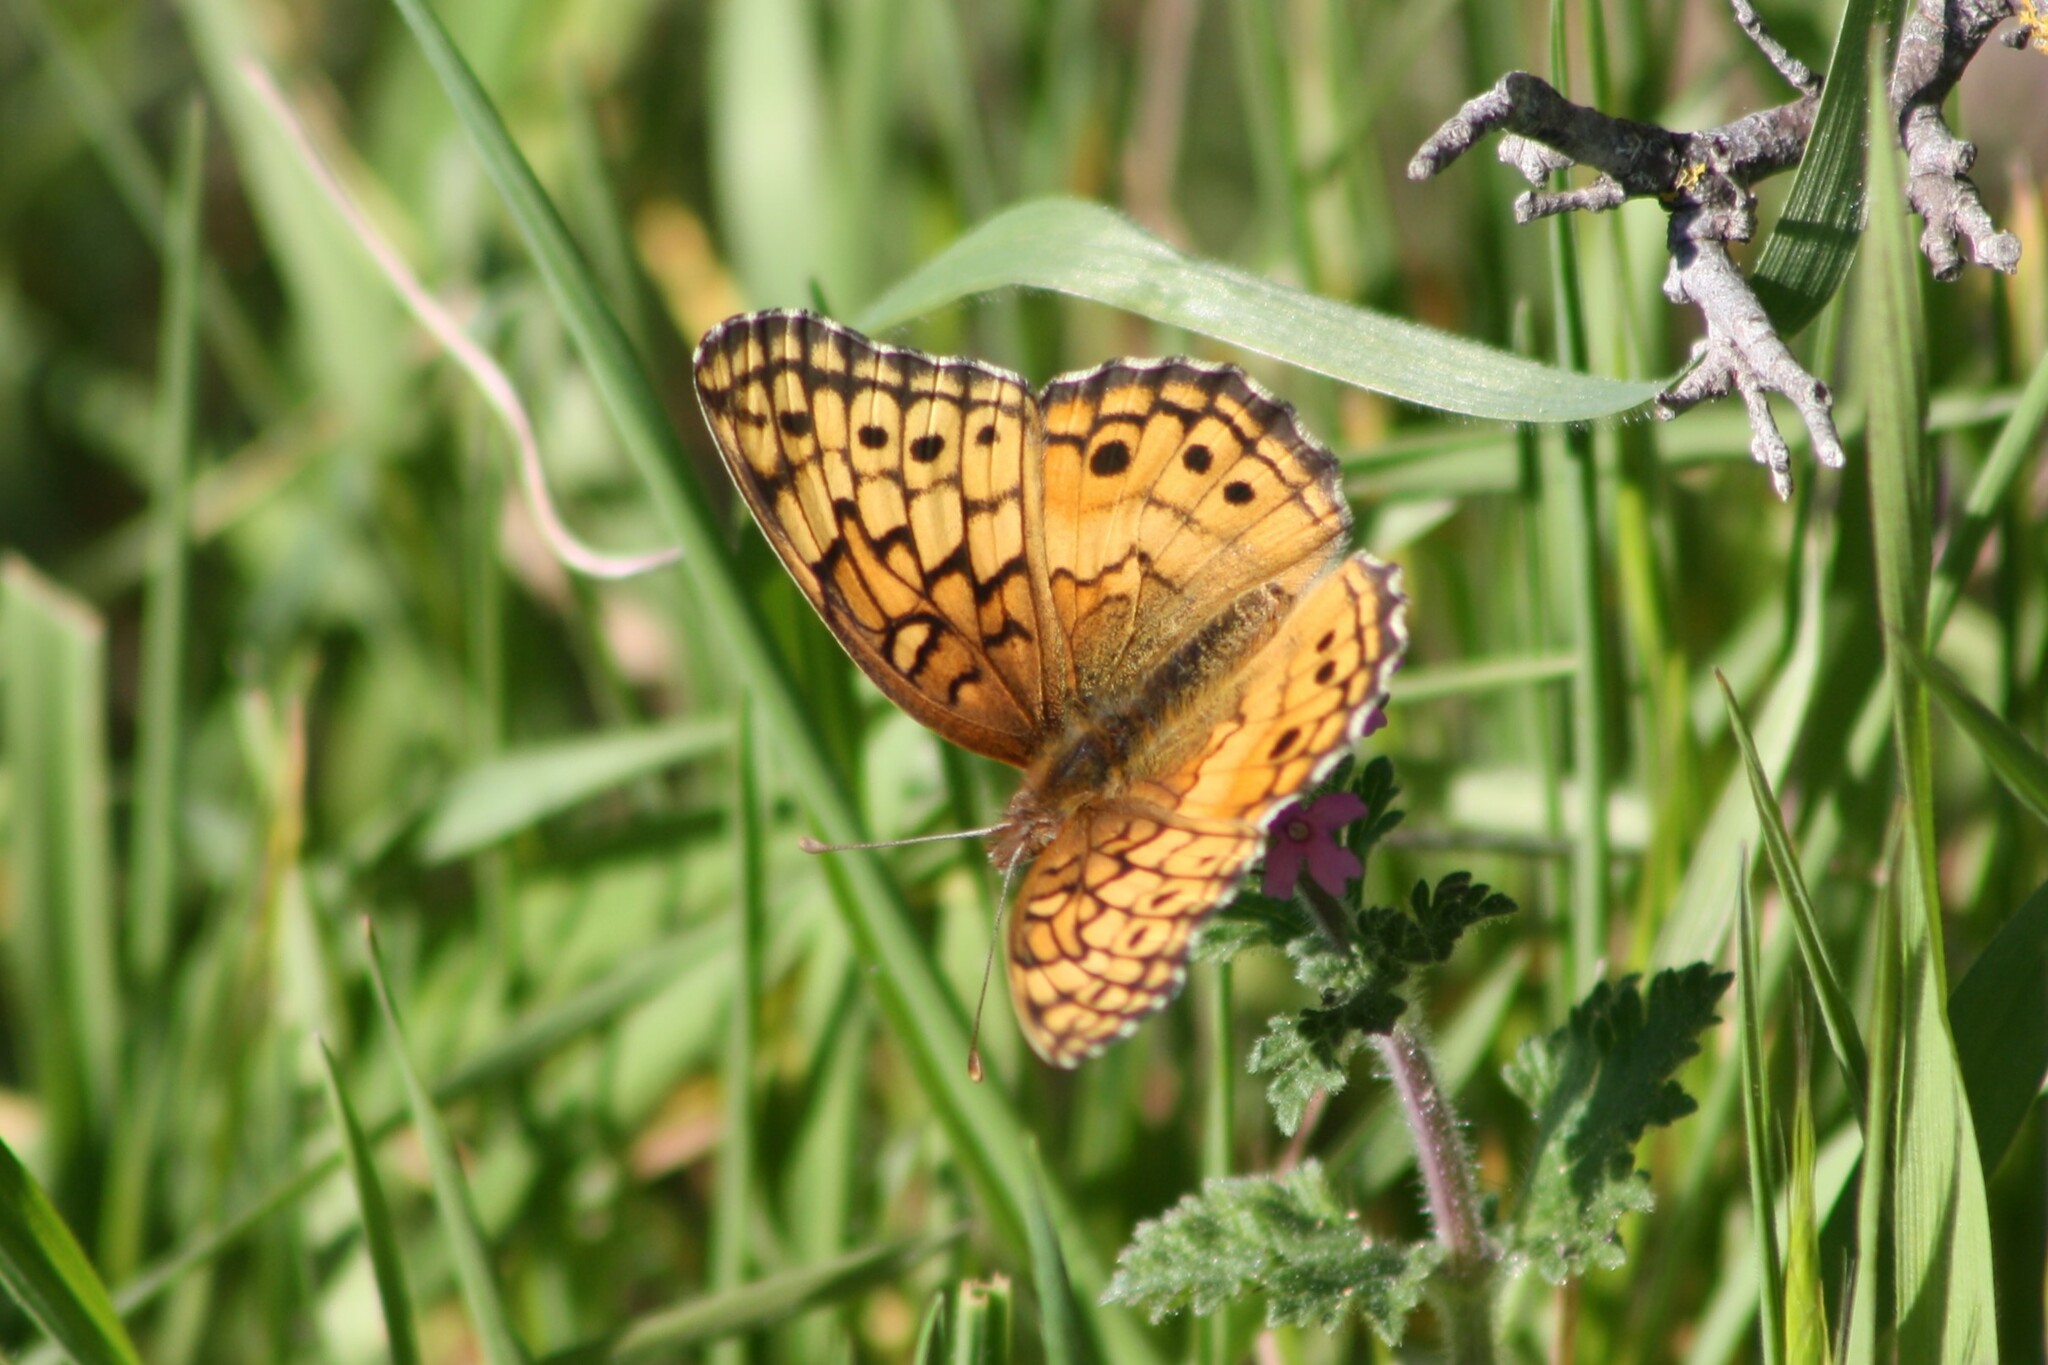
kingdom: Animalia
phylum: Arthropoda
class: Insecta
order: Lepidoptera
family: Nymphalidae
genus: Euptoieta
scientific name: Euptoieta claudia
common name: Variegated fritillary
